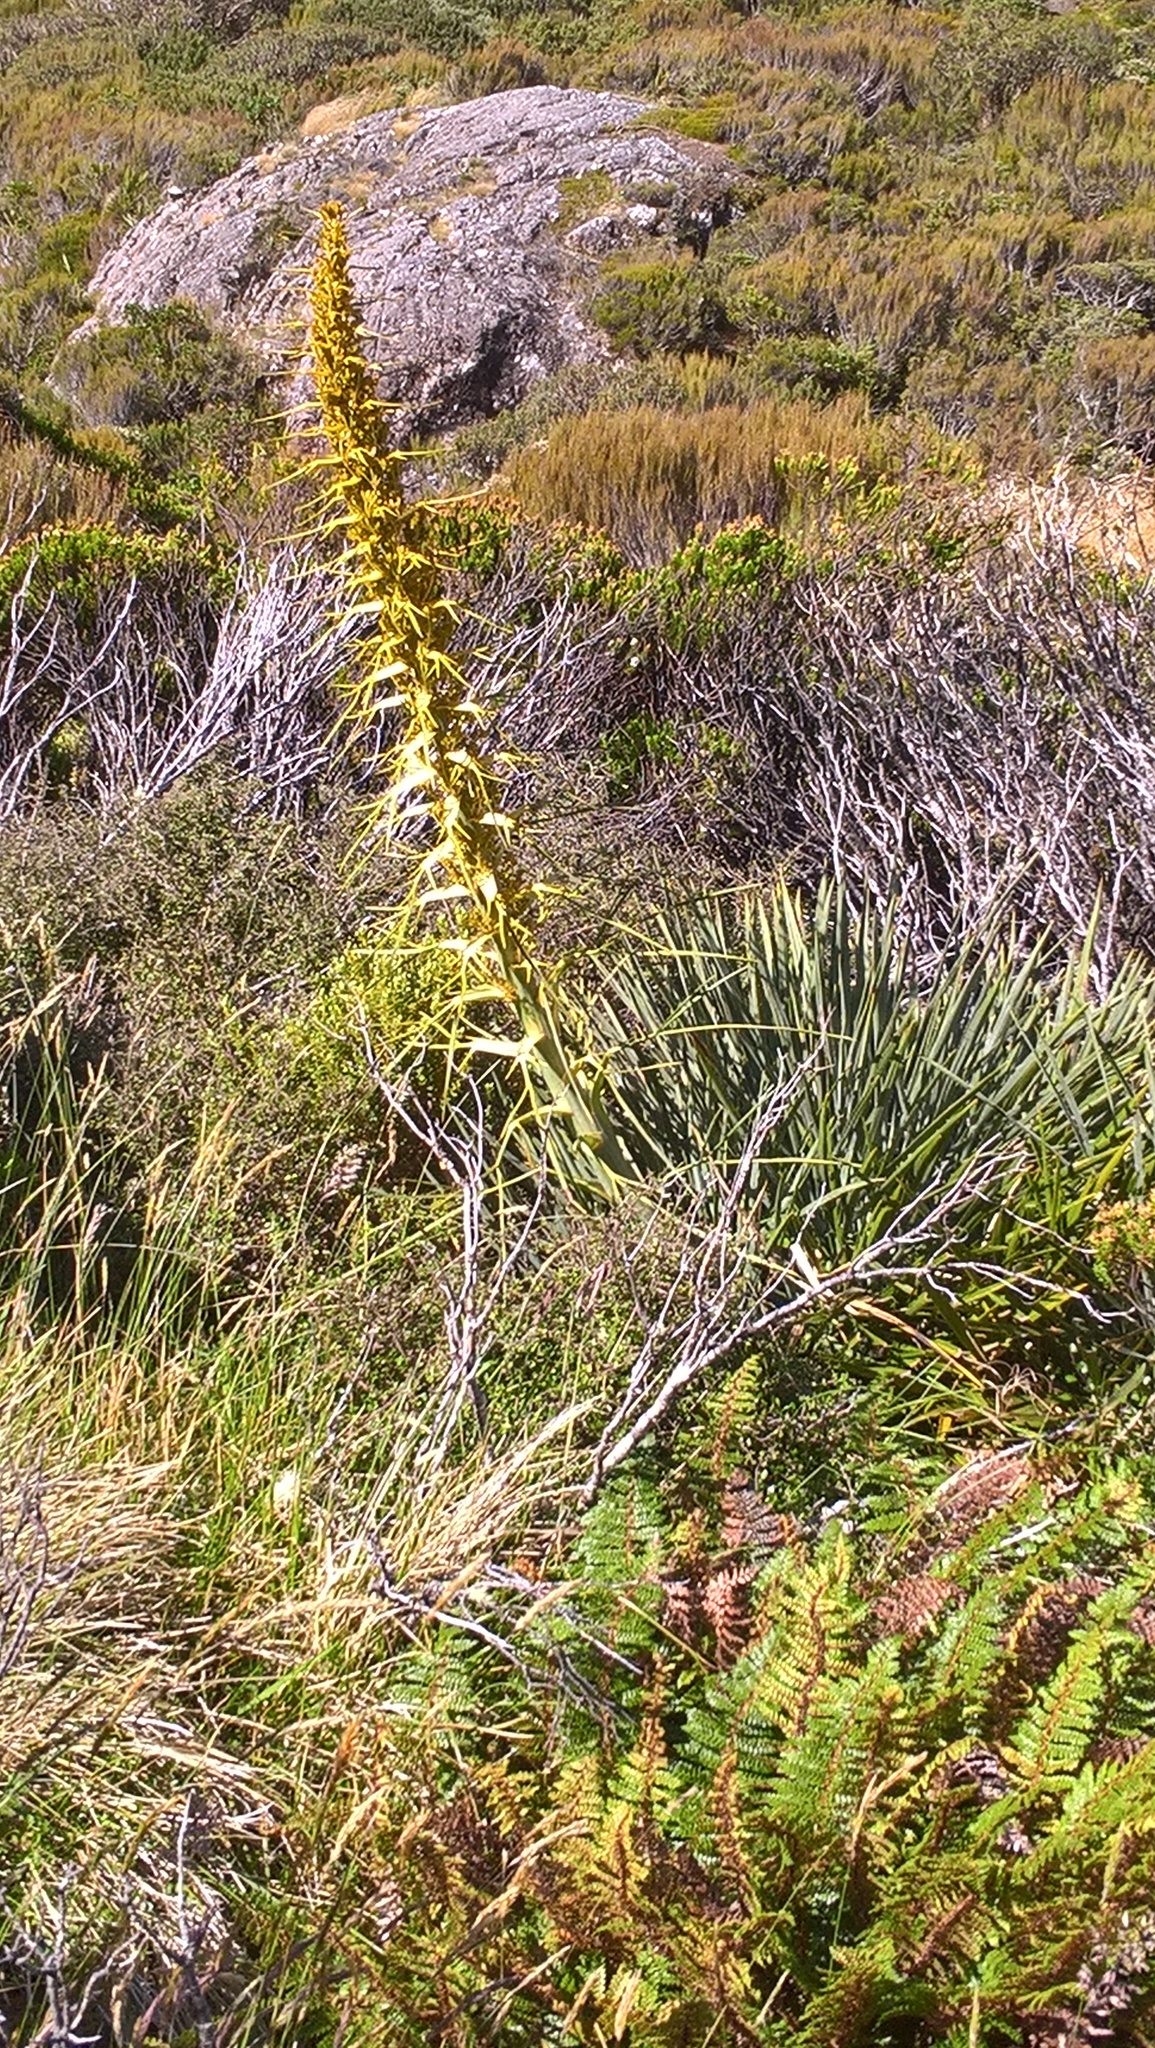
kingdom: Plantae
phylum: Tracheophyta
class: Magnoliopsida
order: Apiales
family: Apiaceae
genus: Aciphylla
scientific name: Aciphylla scott-thomsonii
